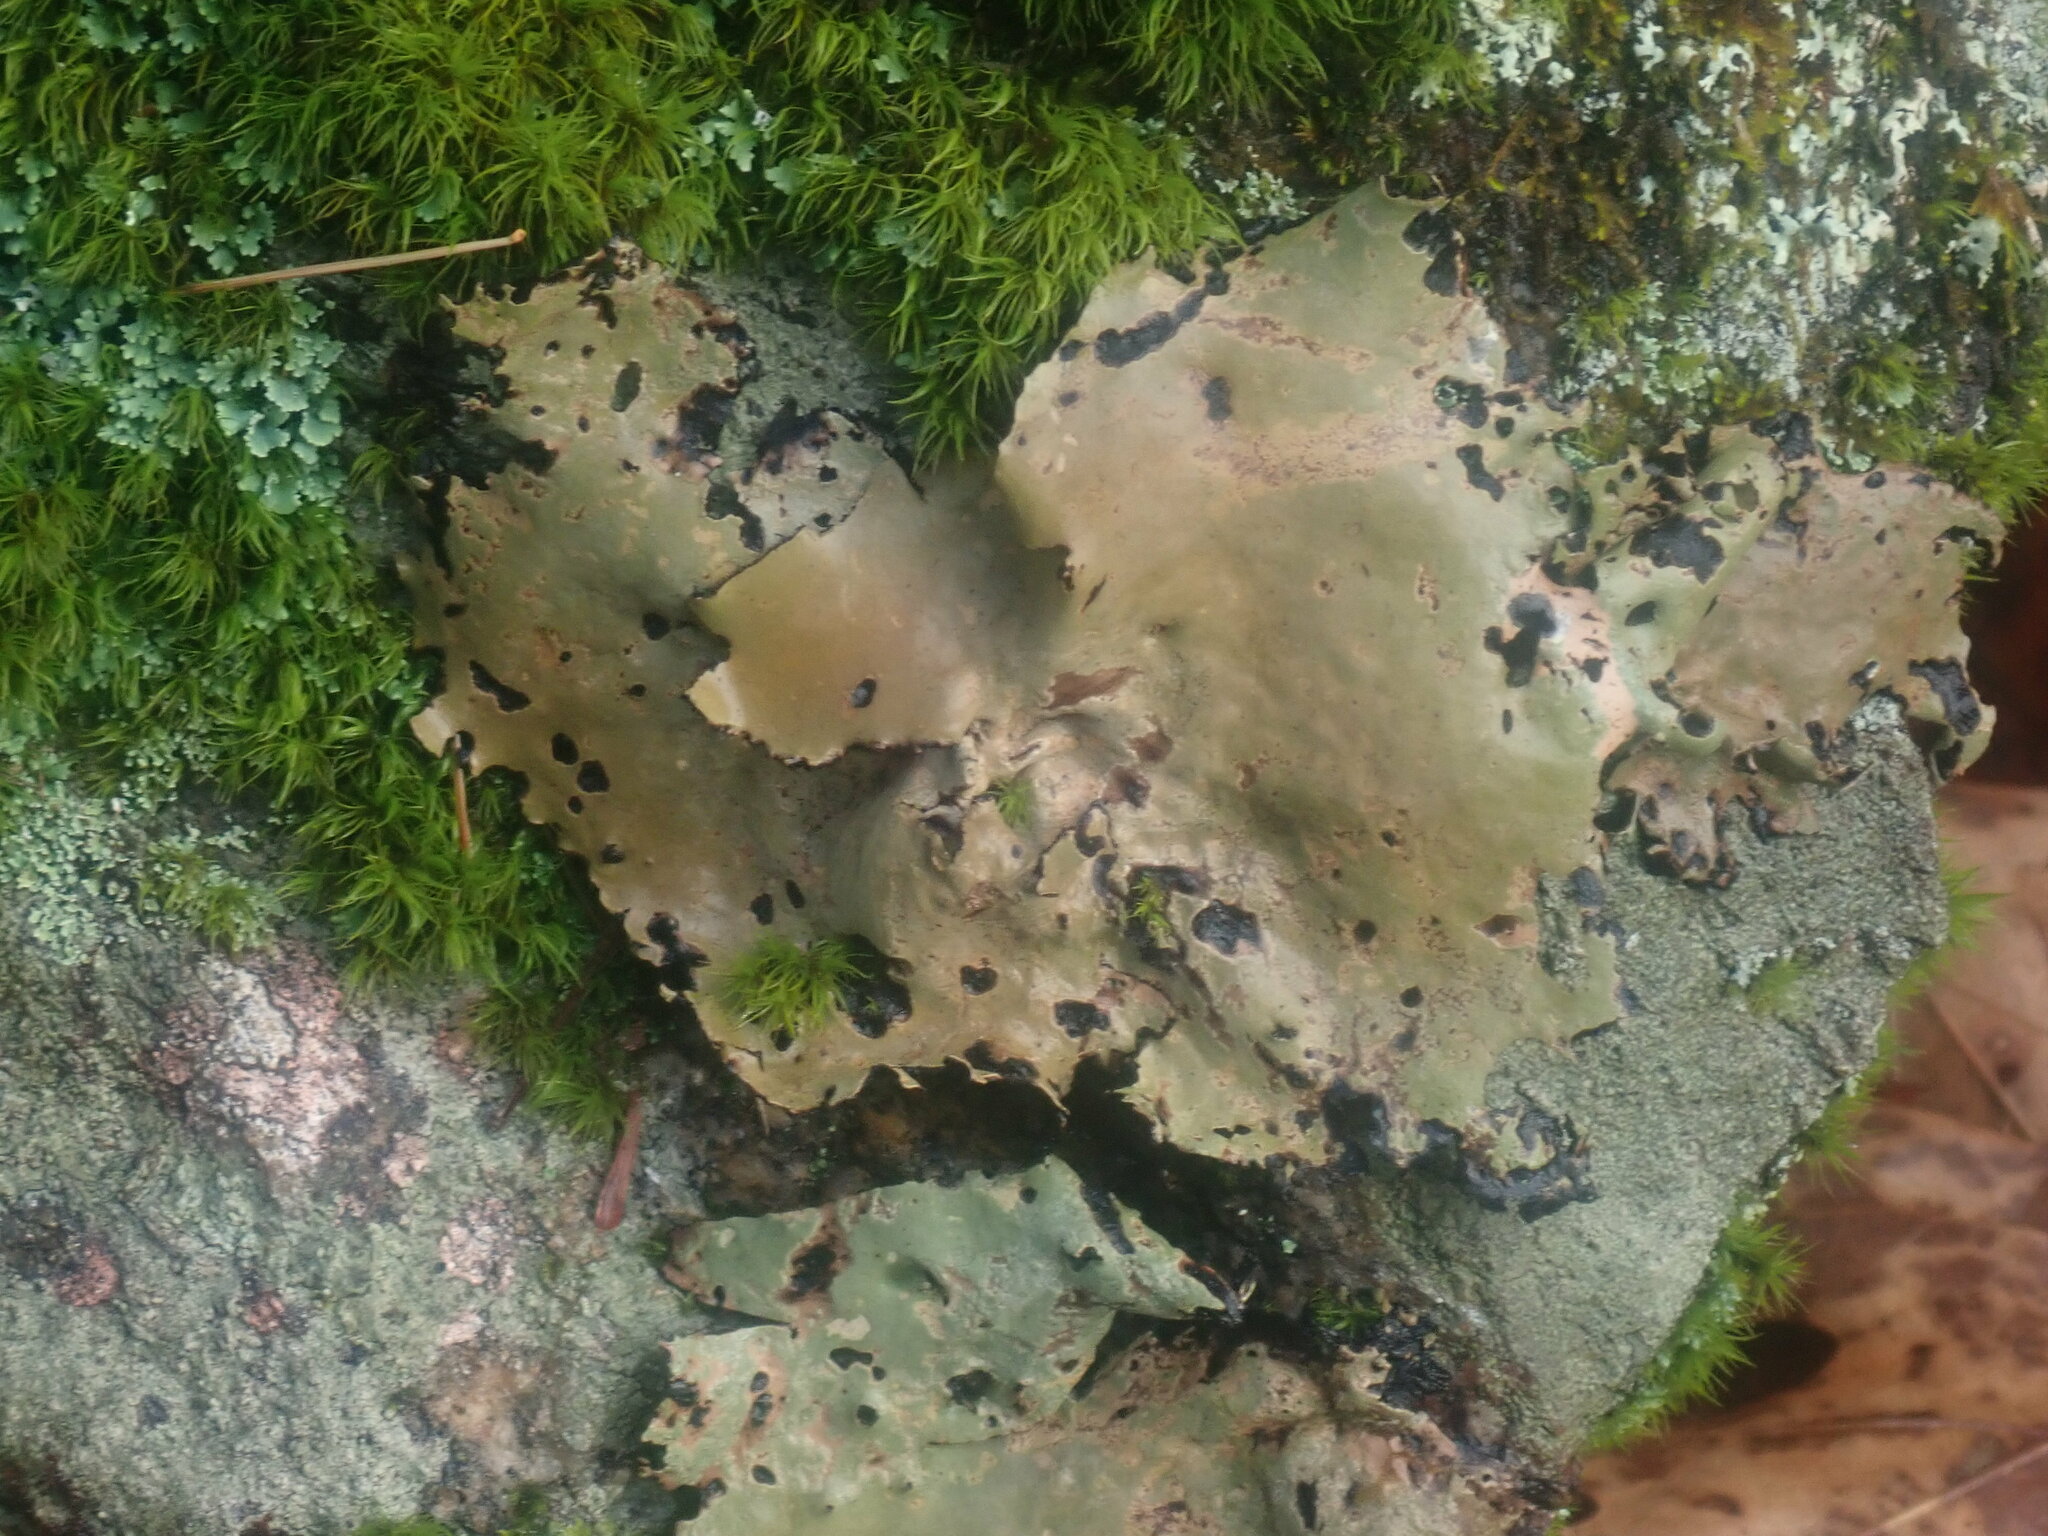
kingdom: Fungi
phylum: Ascomycota
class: Lecanoromycetes
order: Umbilicariales
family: Umbilicariaceae
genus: Umbilicaria
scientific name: Umbilicaria mammulata
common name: Smooth rock tripe
